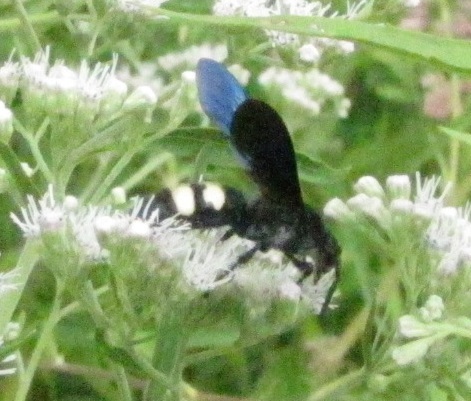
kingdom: Animalia
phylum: Arthropoda
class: Insecta
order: Hymenoptera
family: Scoliidae
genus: Scolia
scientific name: Scolia bicincta
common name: Double-banded scoliid wasp
